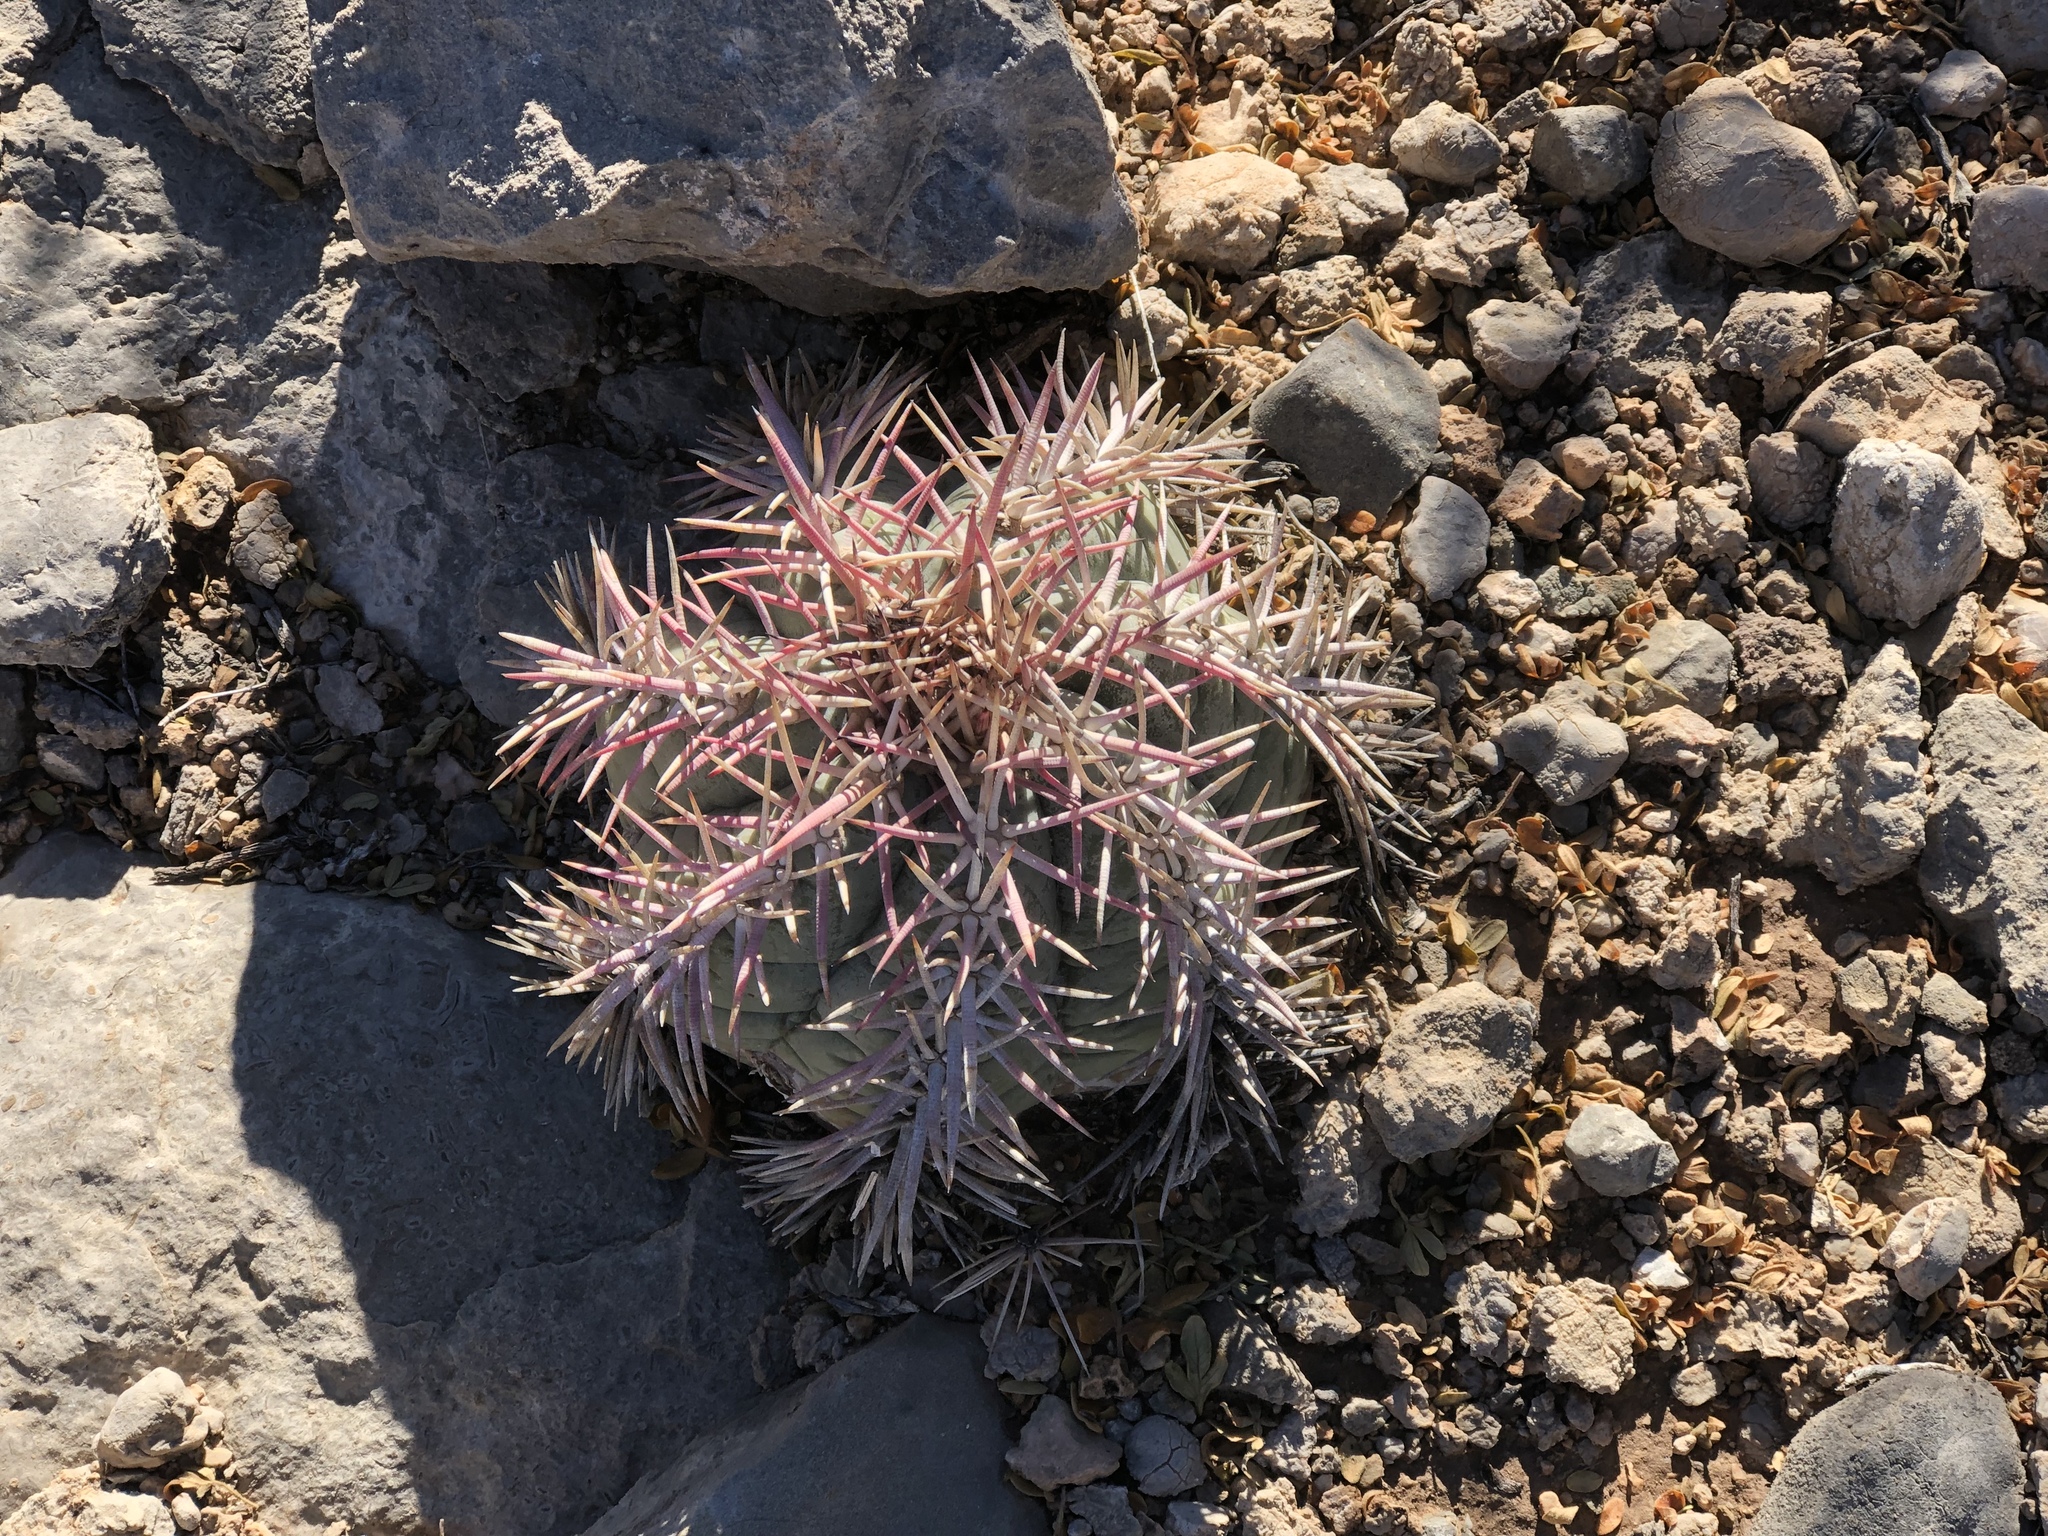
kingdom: Plantae
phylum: Tracheophyta
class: Magnoliopsida
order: Caryophyllales
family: Cactaceae
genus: Echinocactus
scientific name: Echinocactus horizonthalonius
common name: Devilshead
